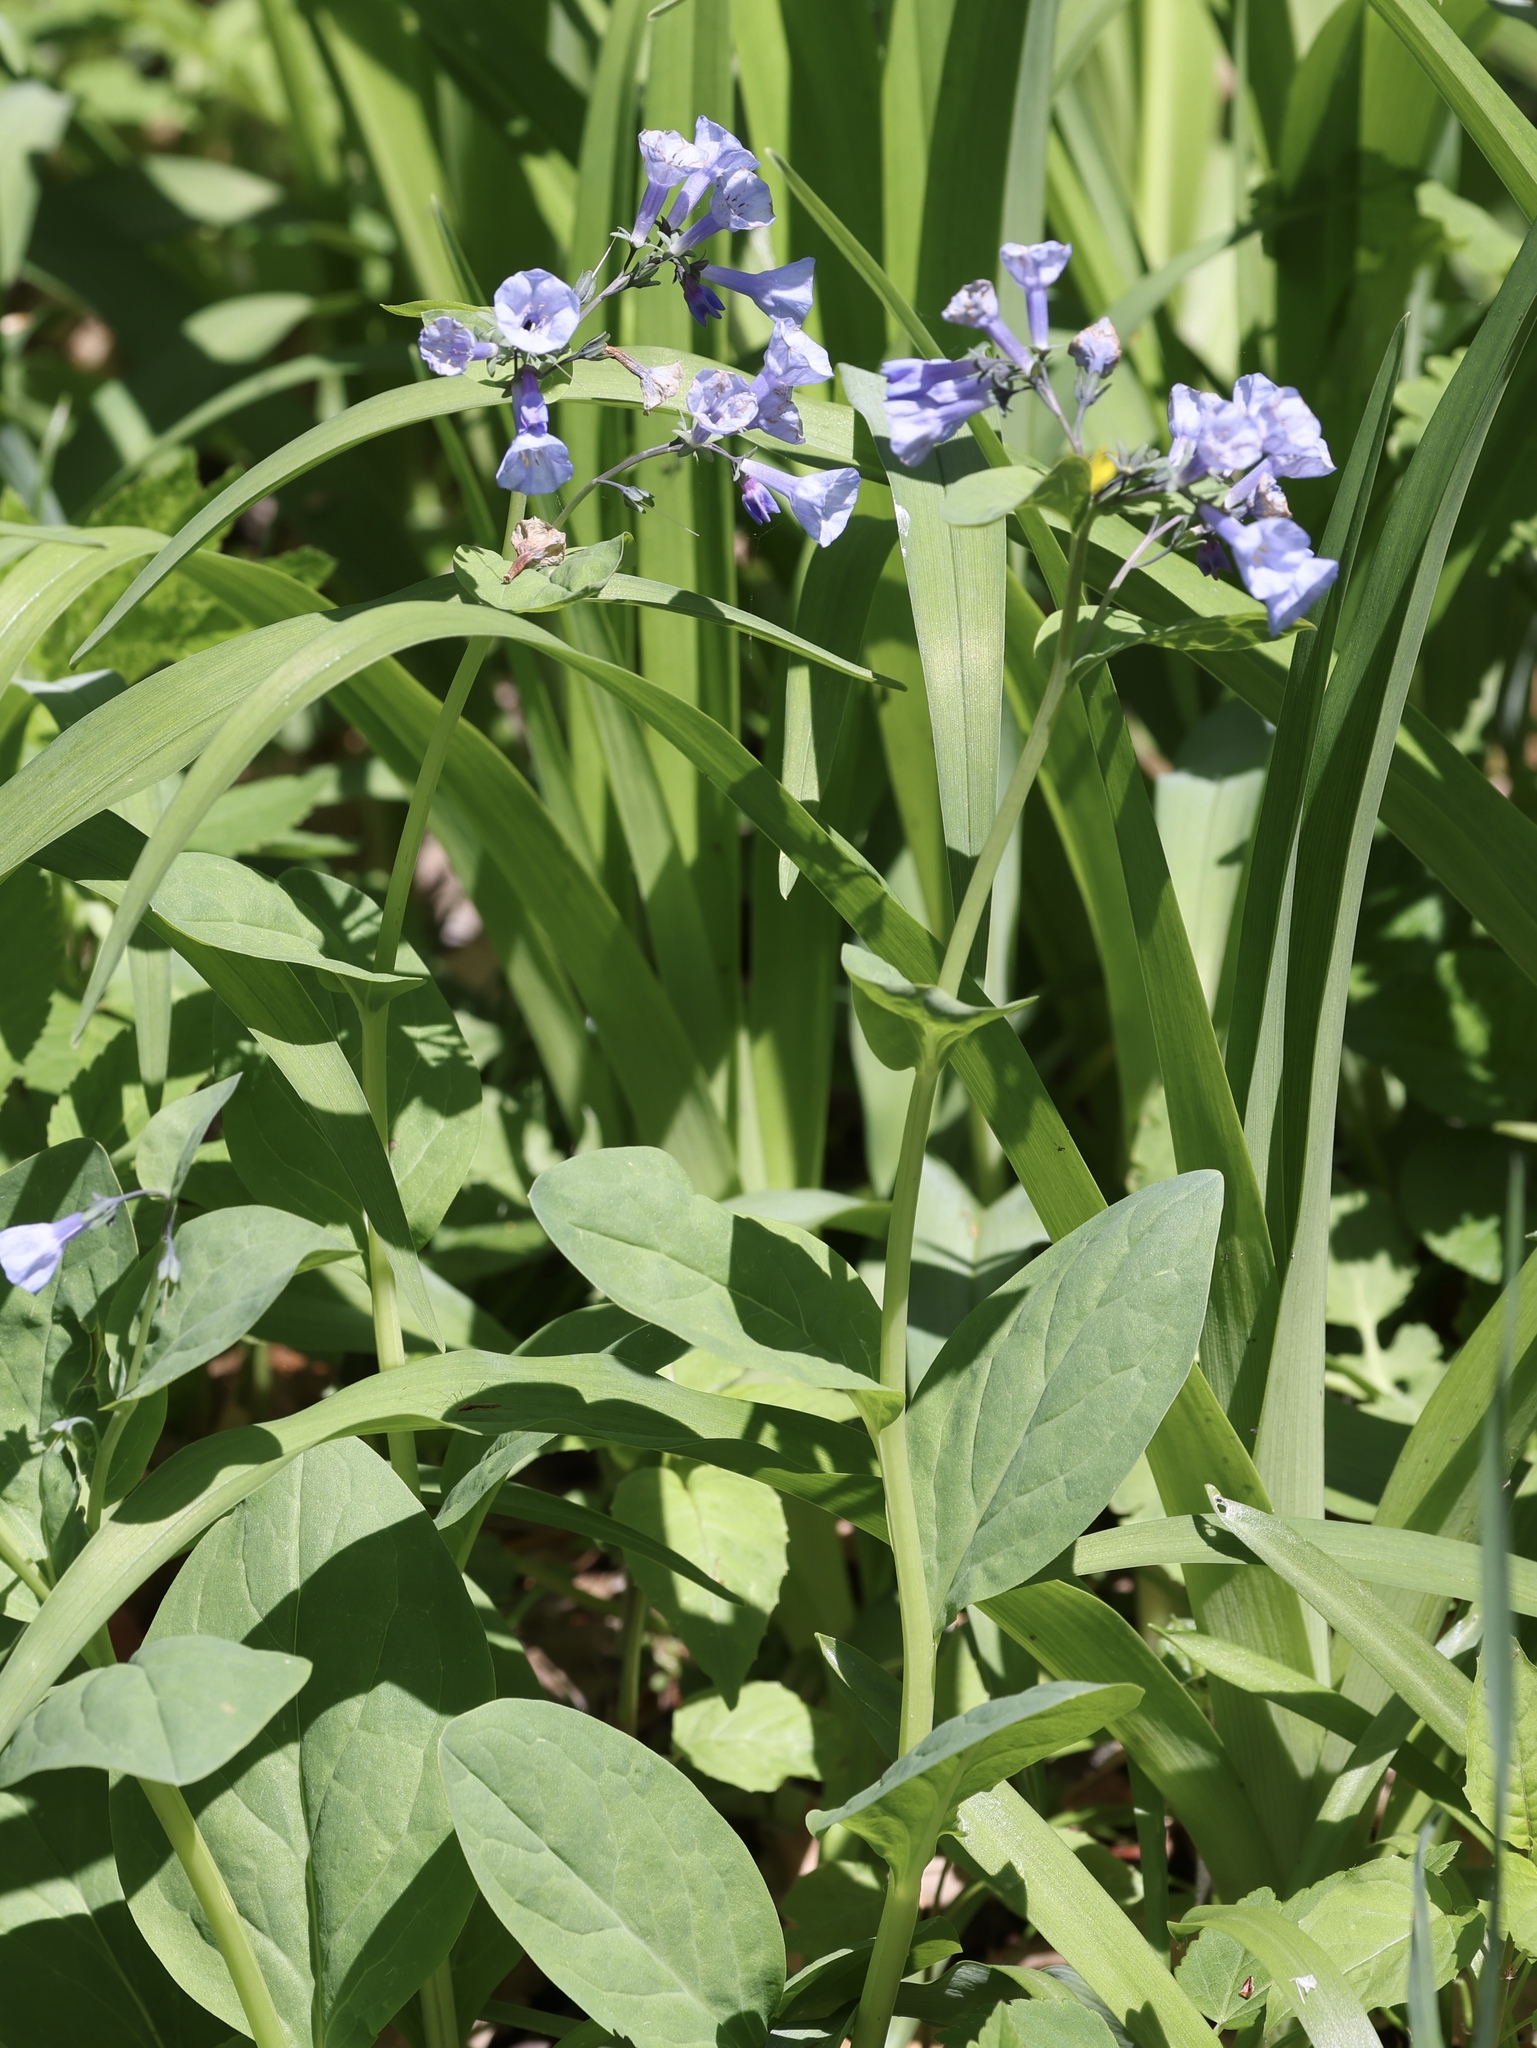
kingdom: Plantae
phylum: Tracheophyta
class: Magnoliopsida
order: Boraginales
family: Boraginaceae
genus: Mertensia
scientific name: Mertensia virginica
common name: Virginia bluebells
